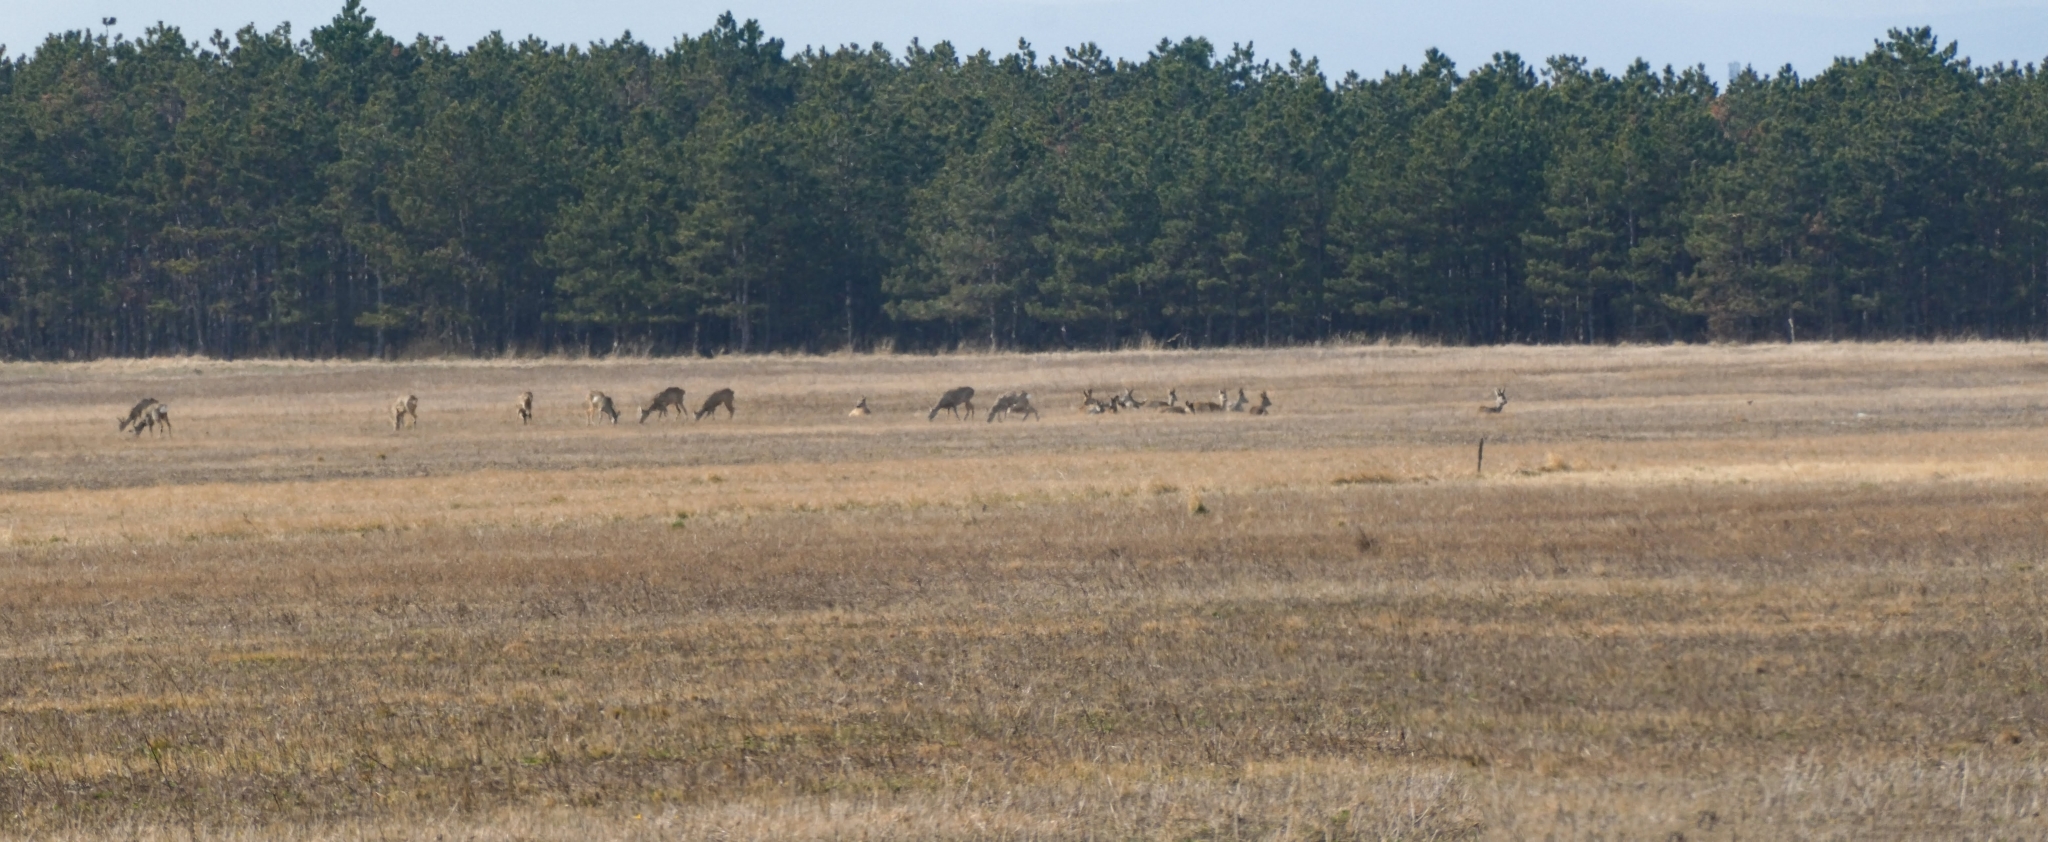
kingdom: Animalia
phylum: Chordata
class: Mammalia
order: Artiodactyla
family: Cervidae
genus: Capreolus
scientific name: Capreolus capreolus
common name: Western roe deer
